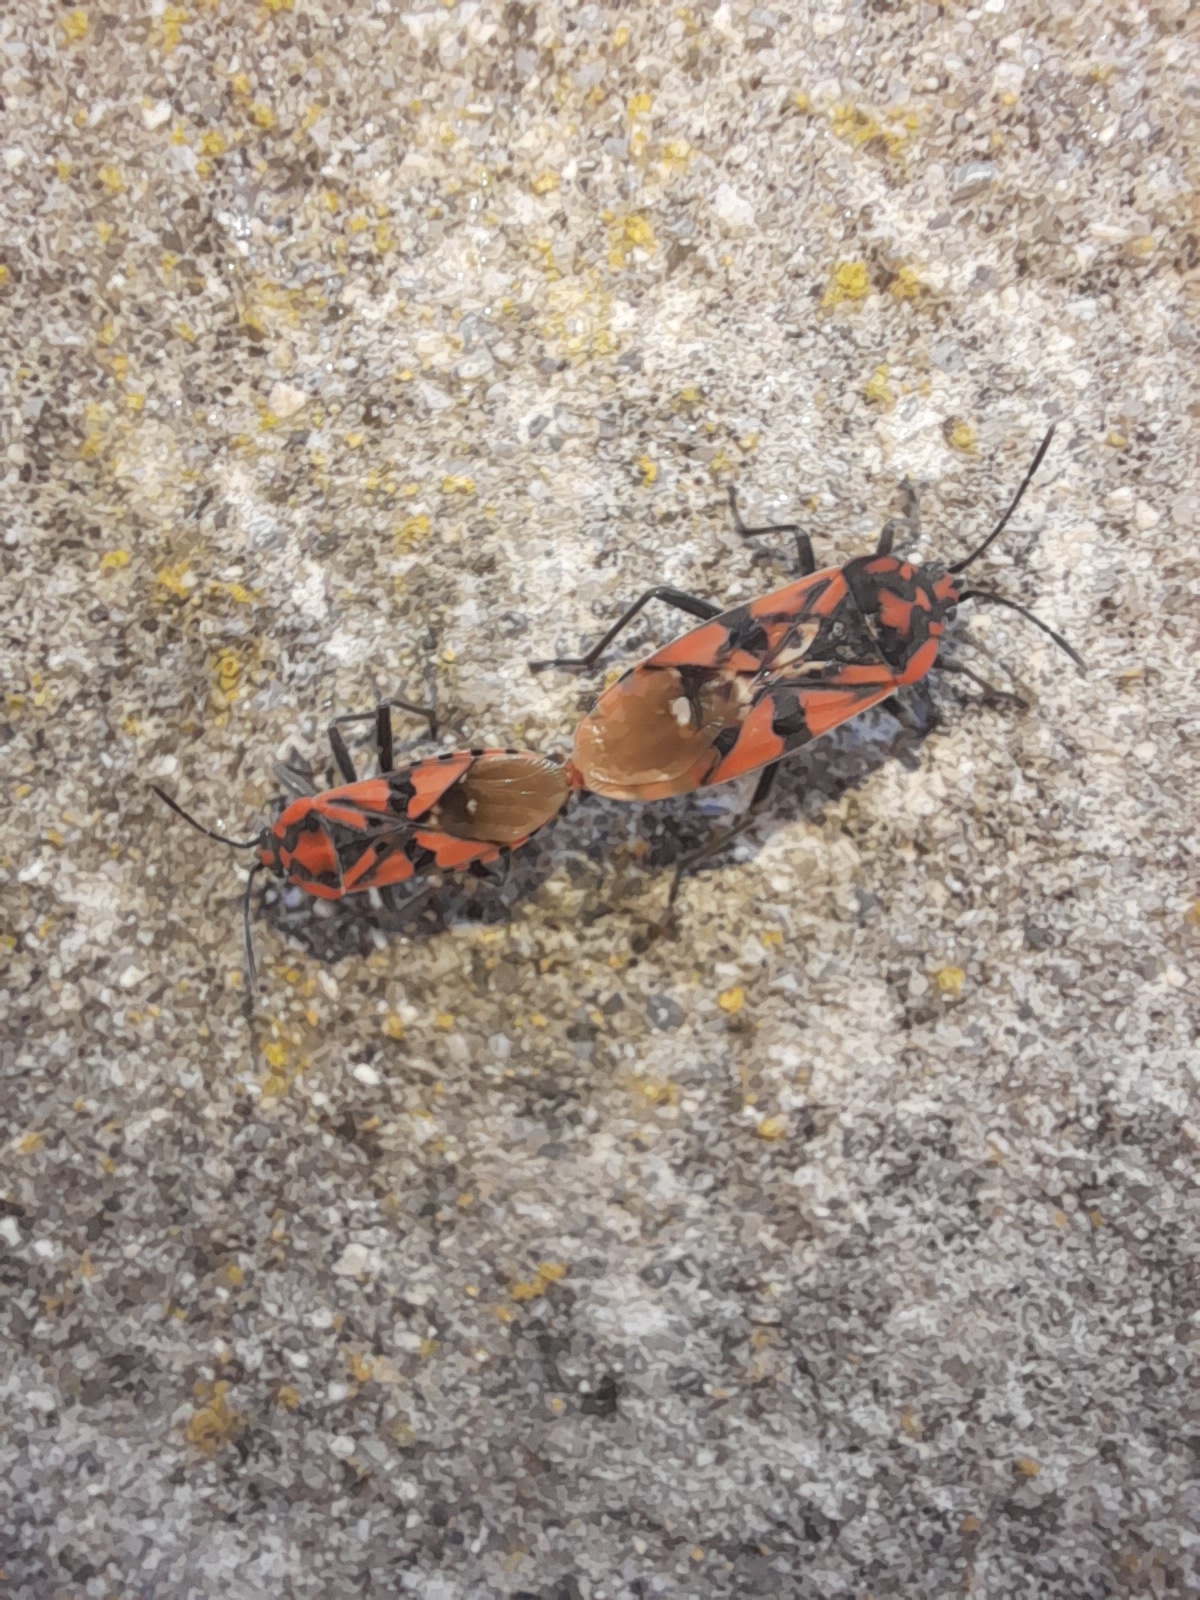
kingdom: Animalia
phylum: Arthropoda
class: Insecta
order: Hemiptera
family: Lygaeidae
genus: Spilostethus
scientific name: Spilostethus pandurus
